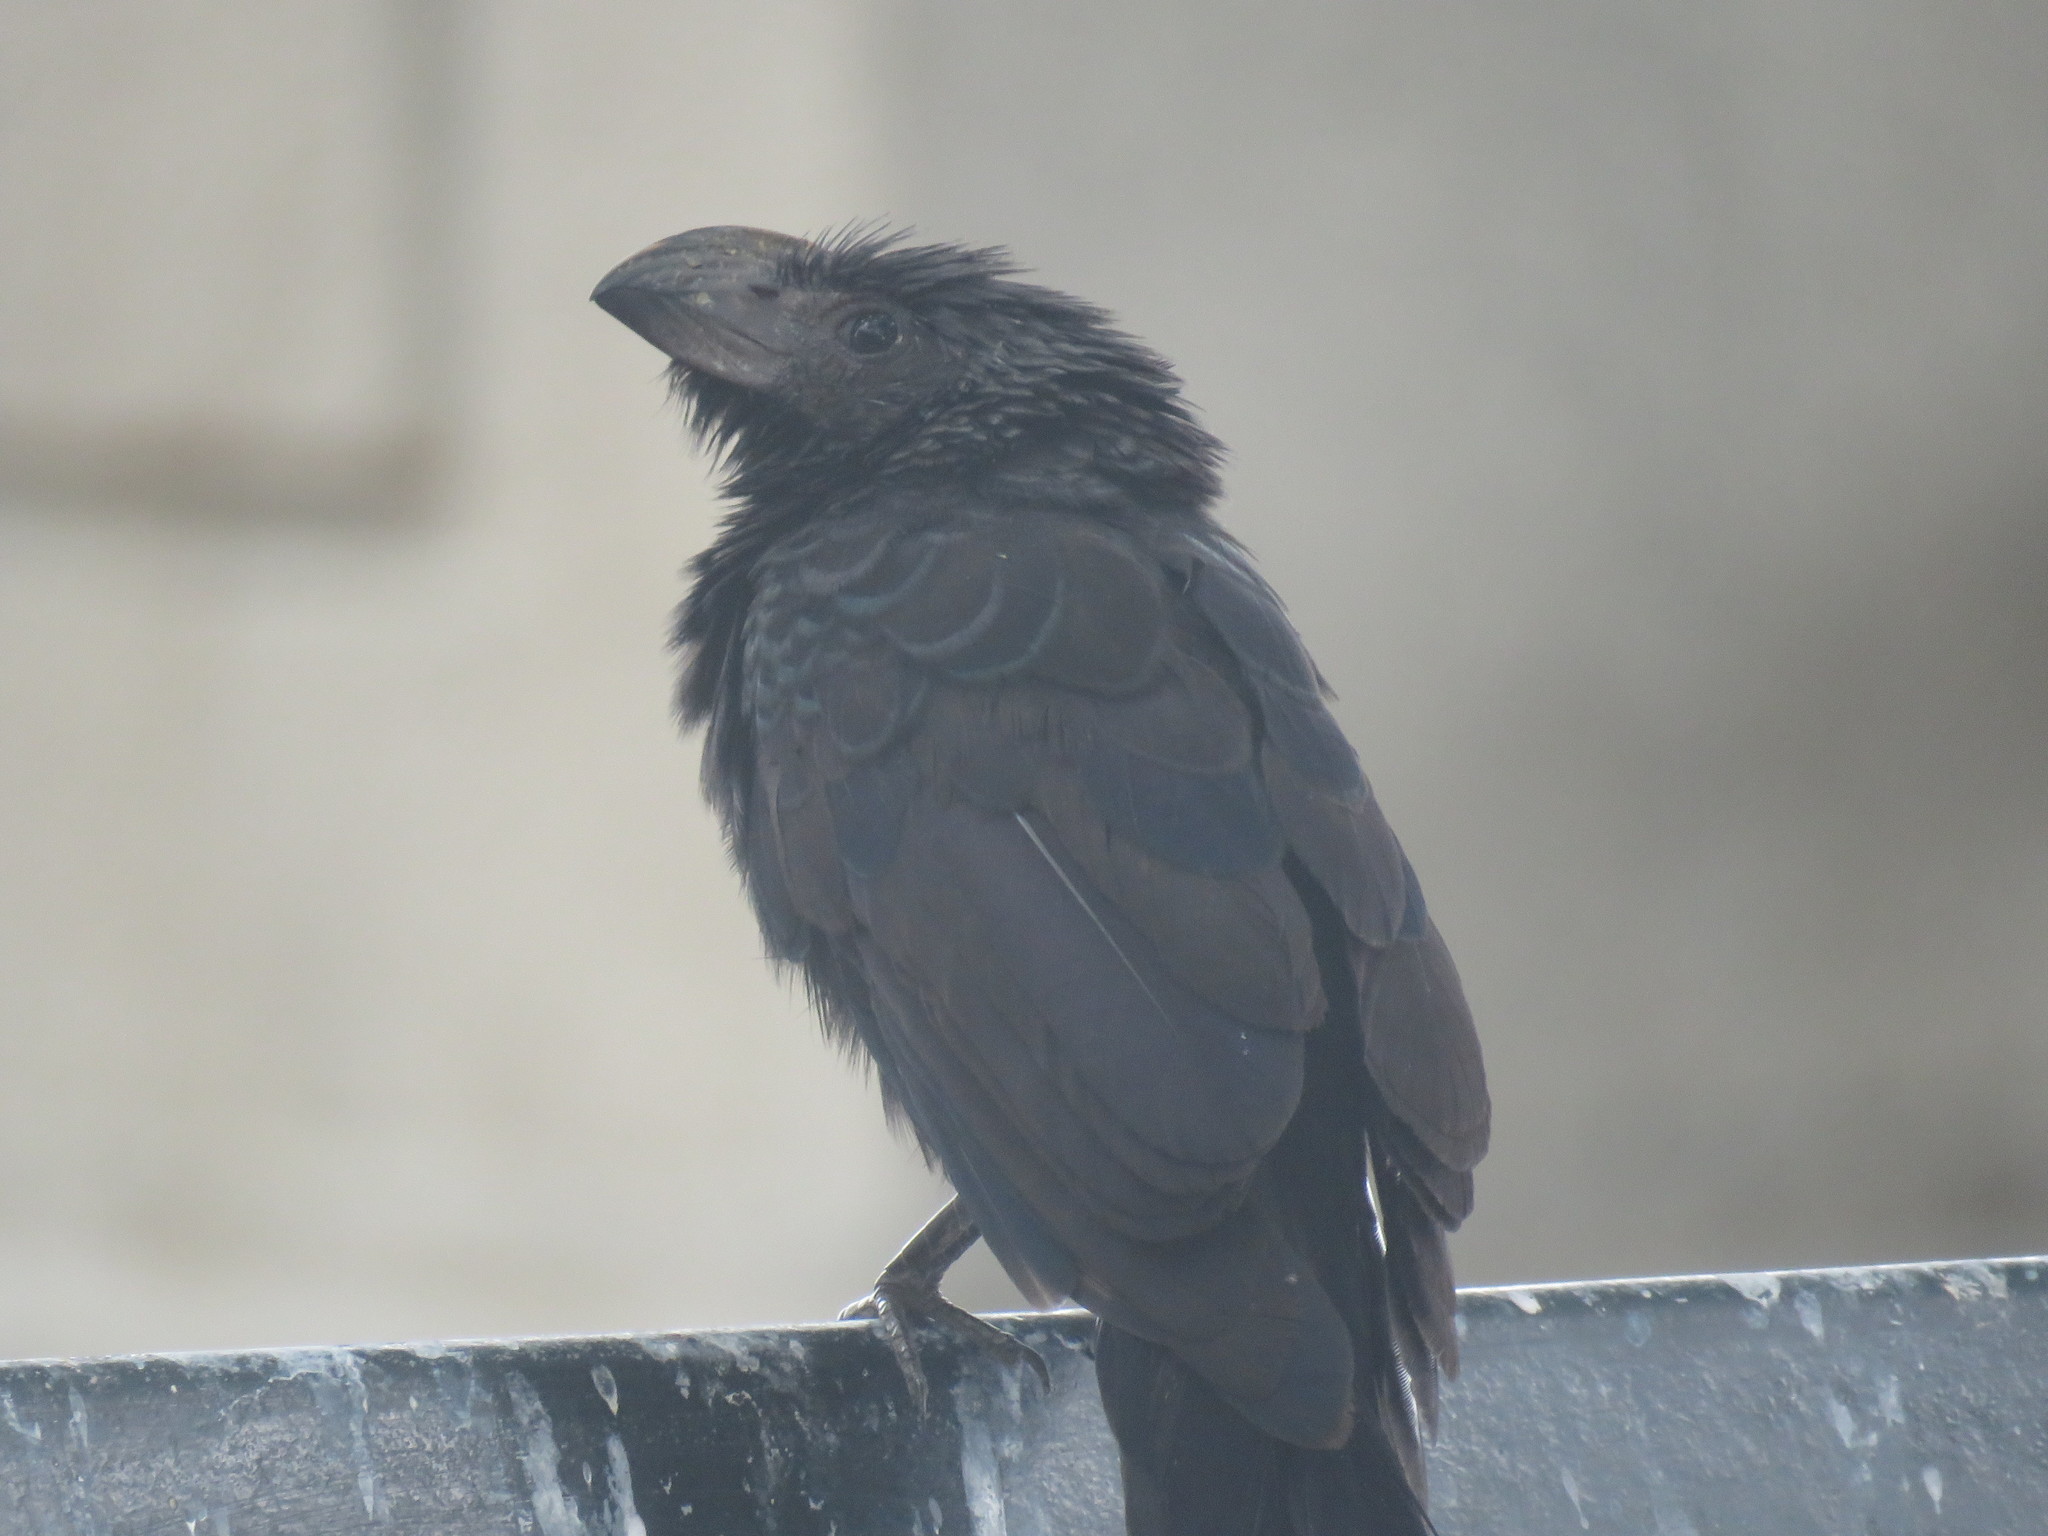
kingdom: Animalia
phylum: Chordata
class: Aves
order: Cuculiformes
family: Cuculidae
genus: Crotophaga
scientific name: Crotophaga sulcirostris
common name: Groove-billed ani
